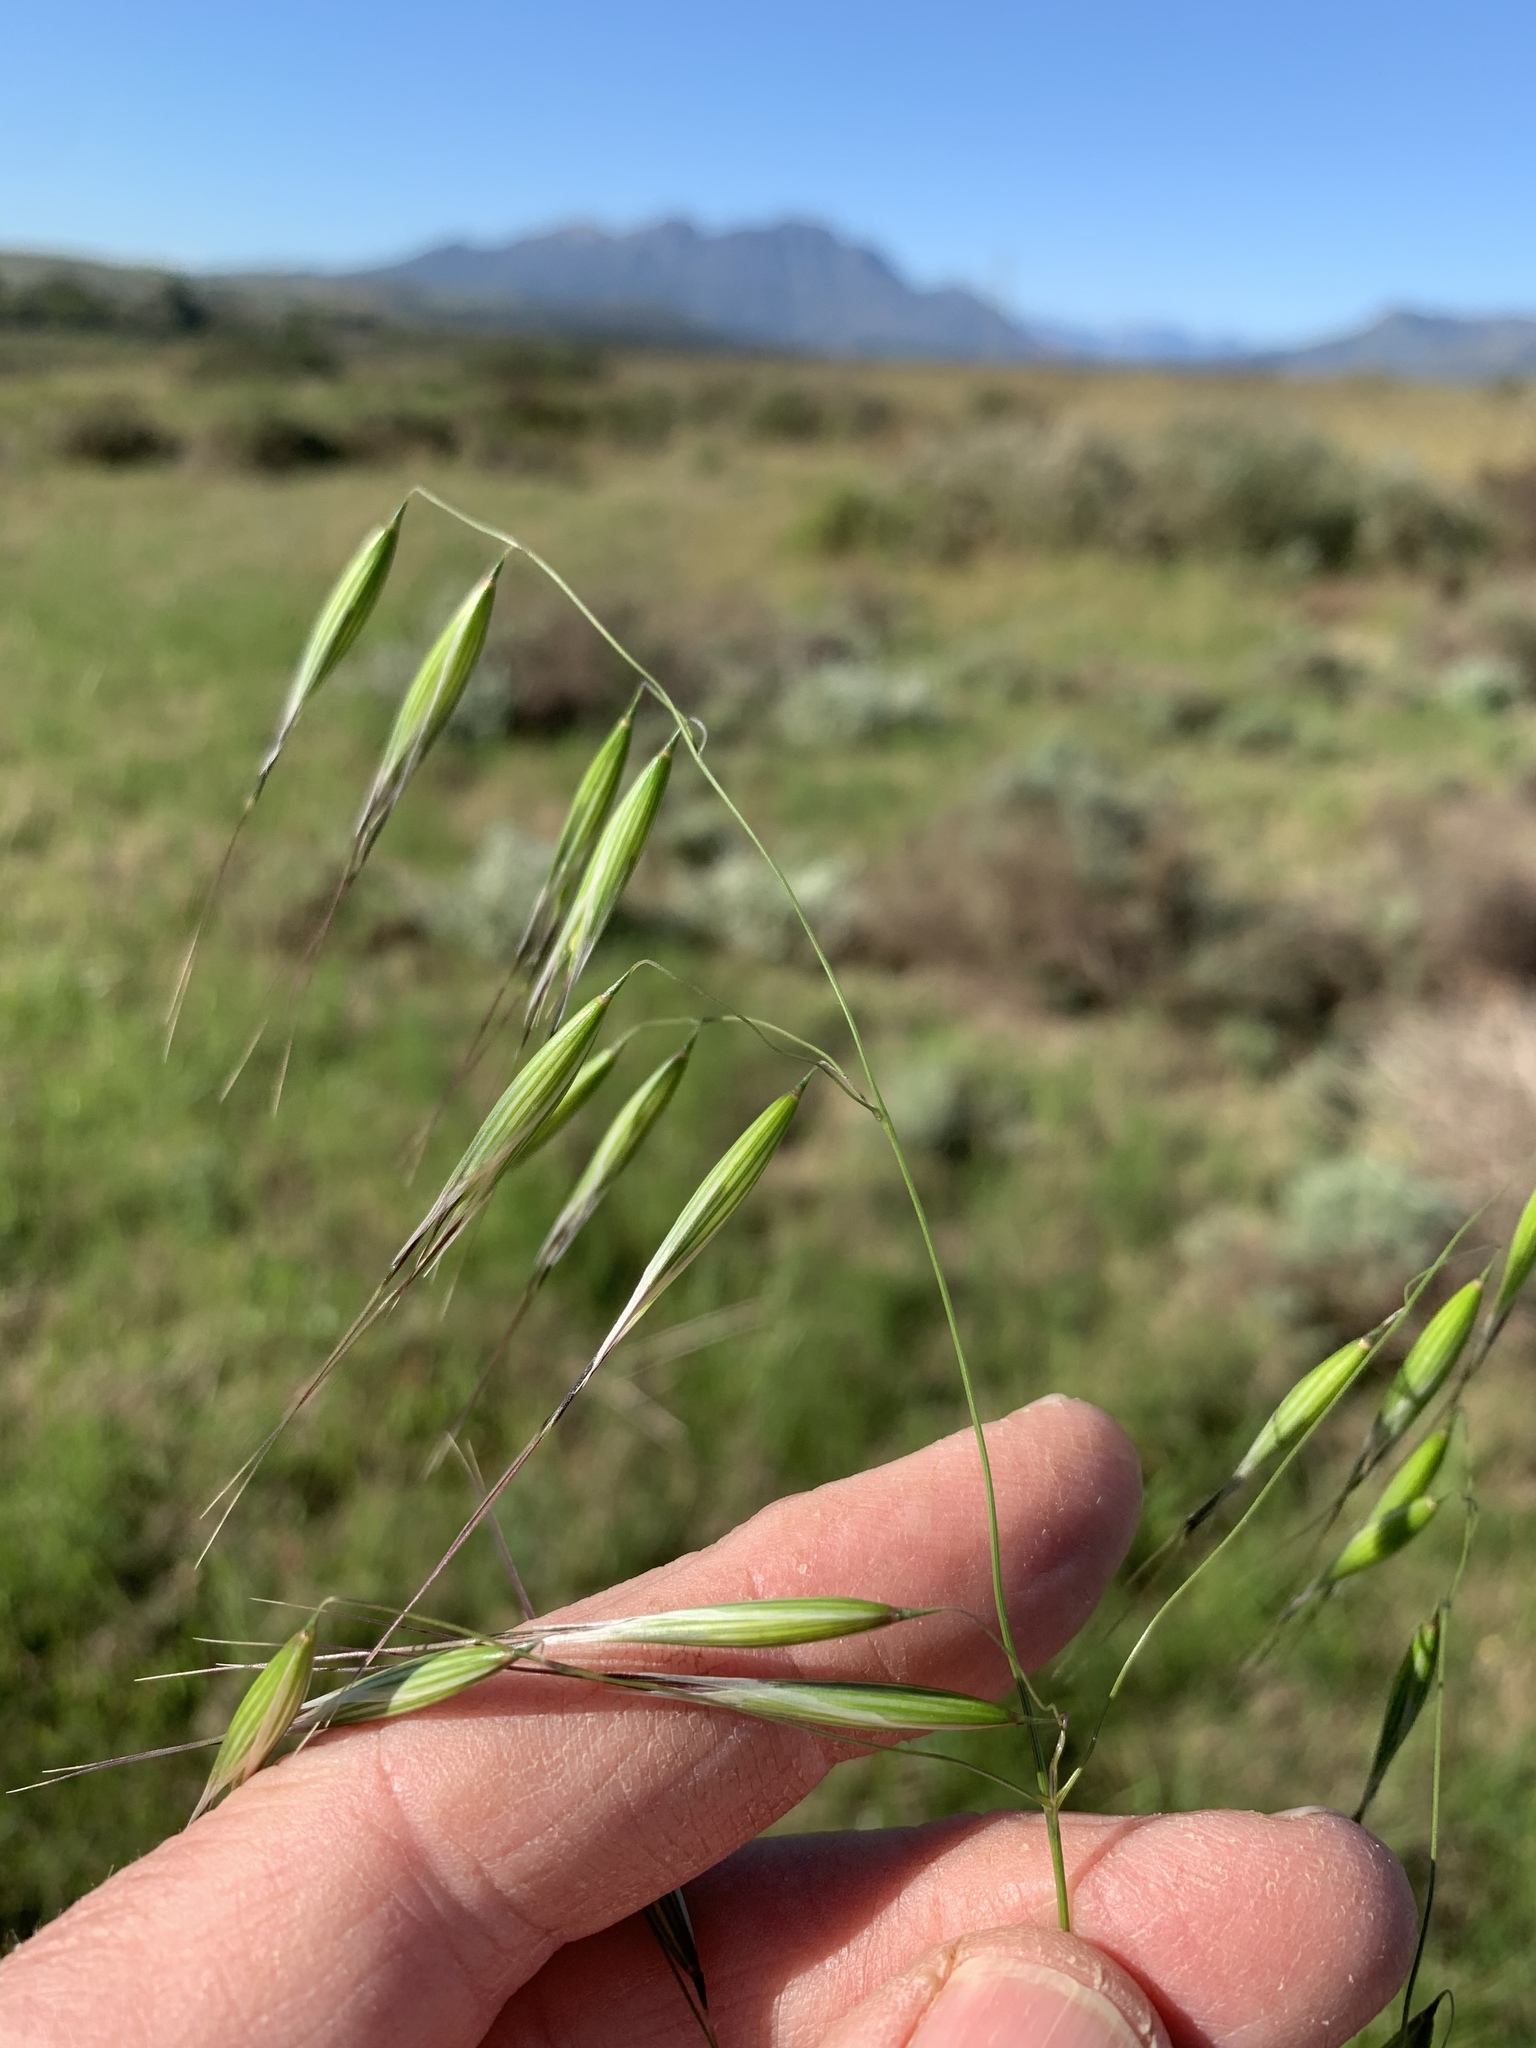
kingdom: Plantae
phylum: Tracheophyta
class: Liliopsida
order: Poales
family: Poaceae
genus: Avena
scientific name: Avena fatua
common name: Wild oat
